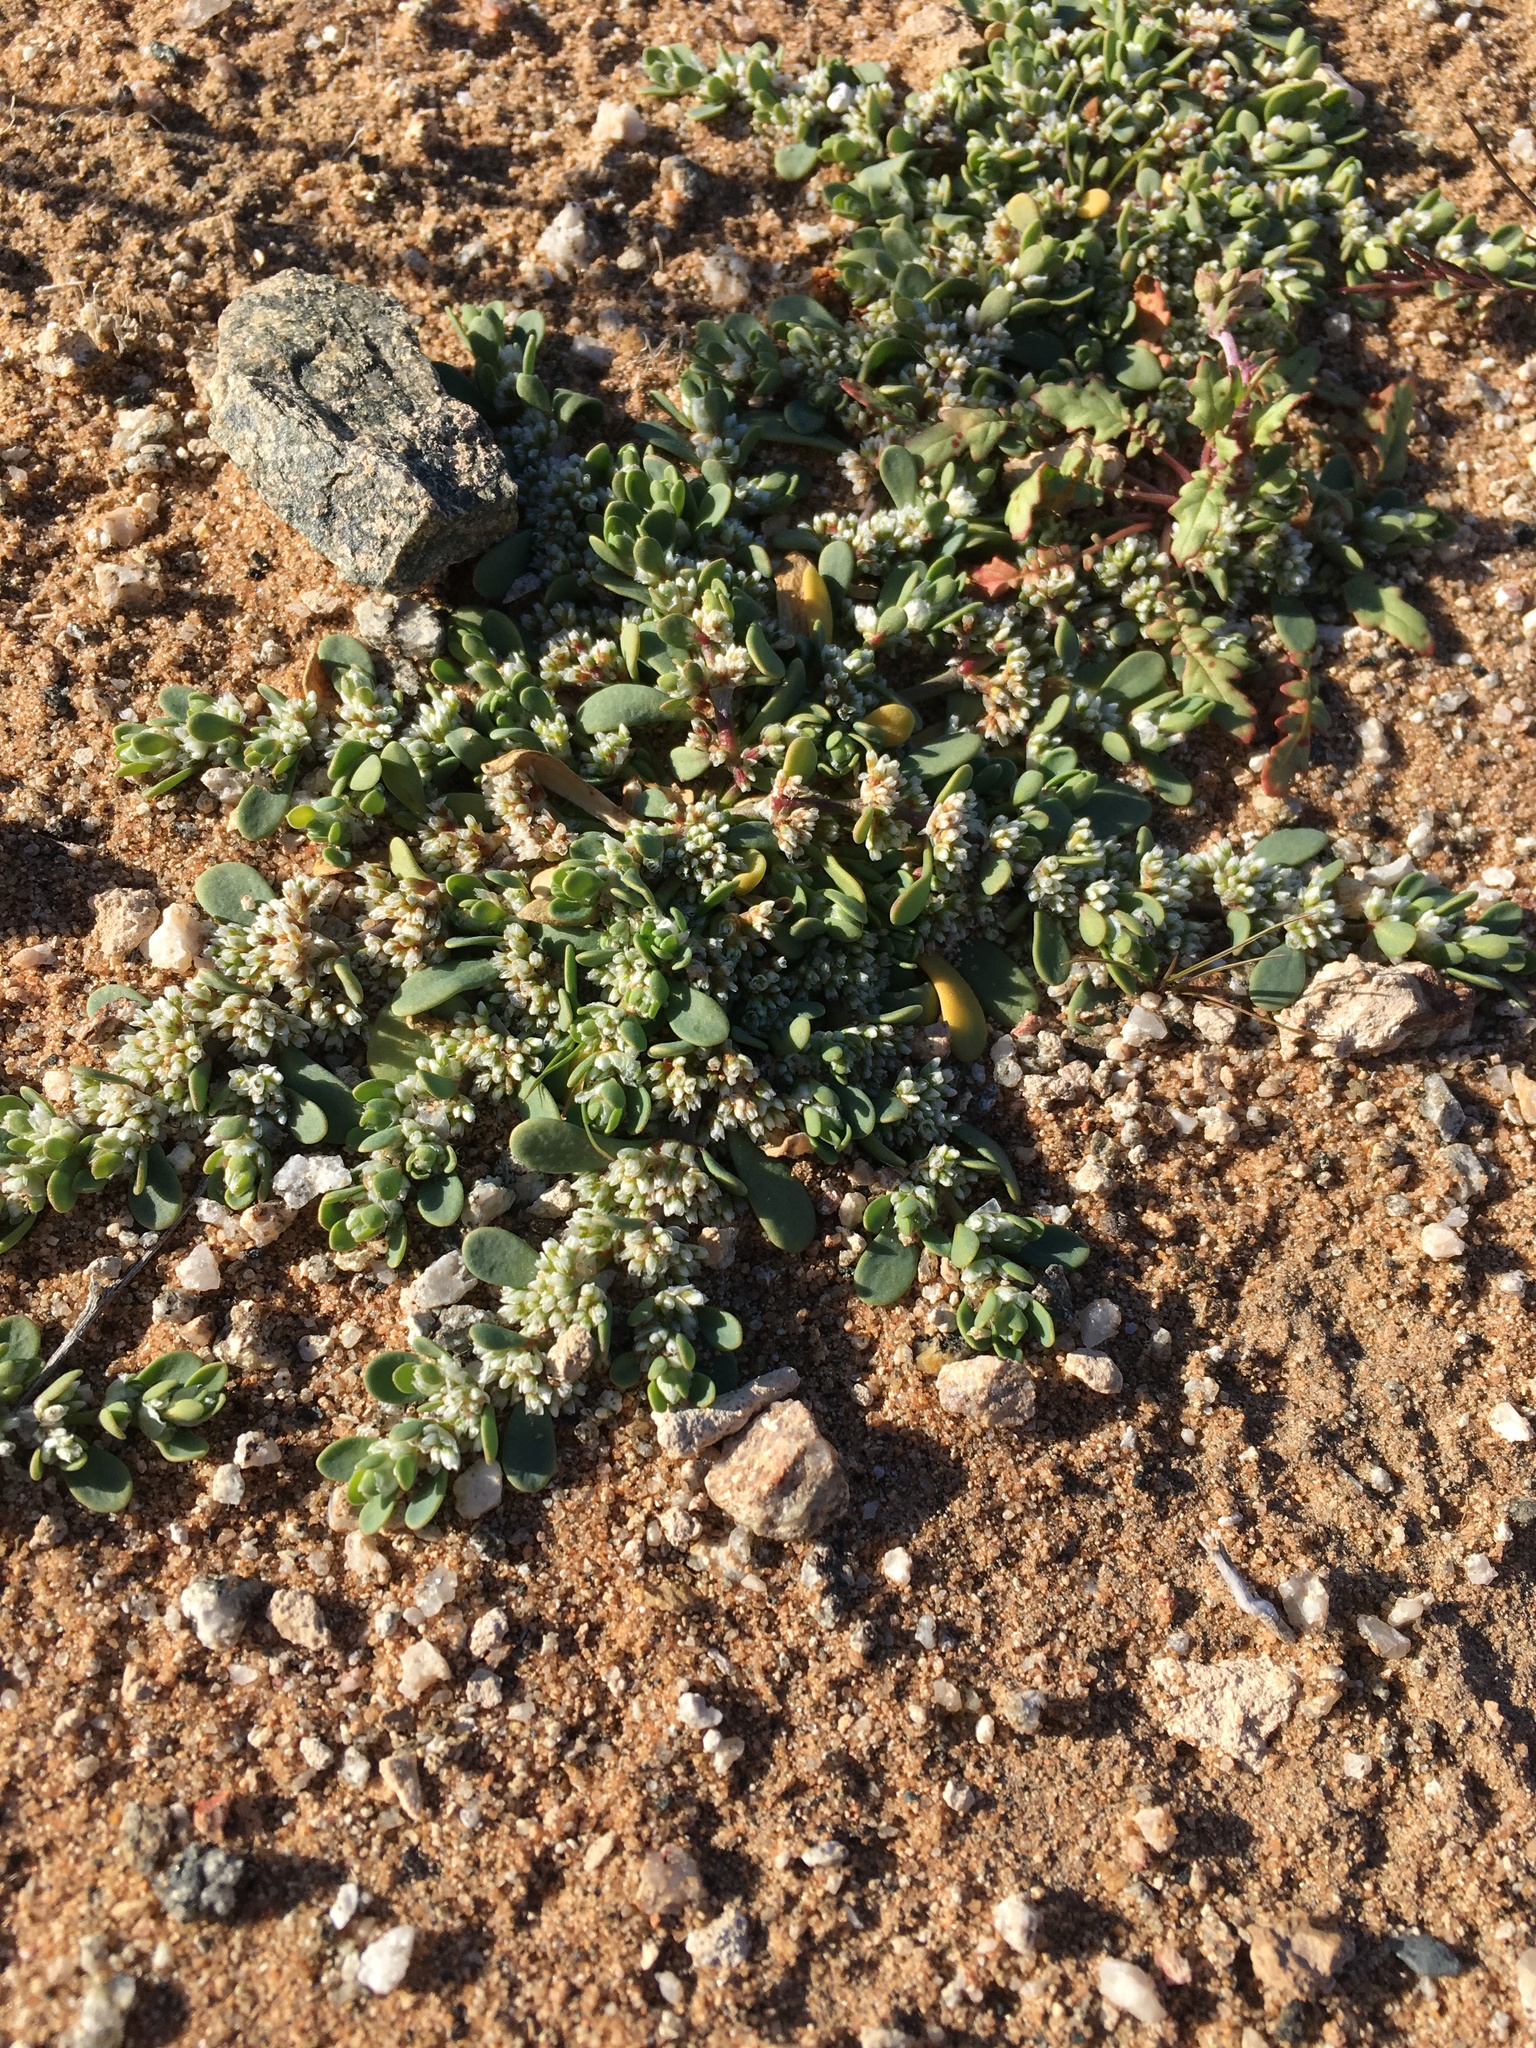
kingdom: Plantae
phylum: Tracheophyta
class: Magnoliopsida
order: Caryophyllales
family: Caryophyllaceae
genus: Achyronychia
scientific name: Achyronychia cooperi
